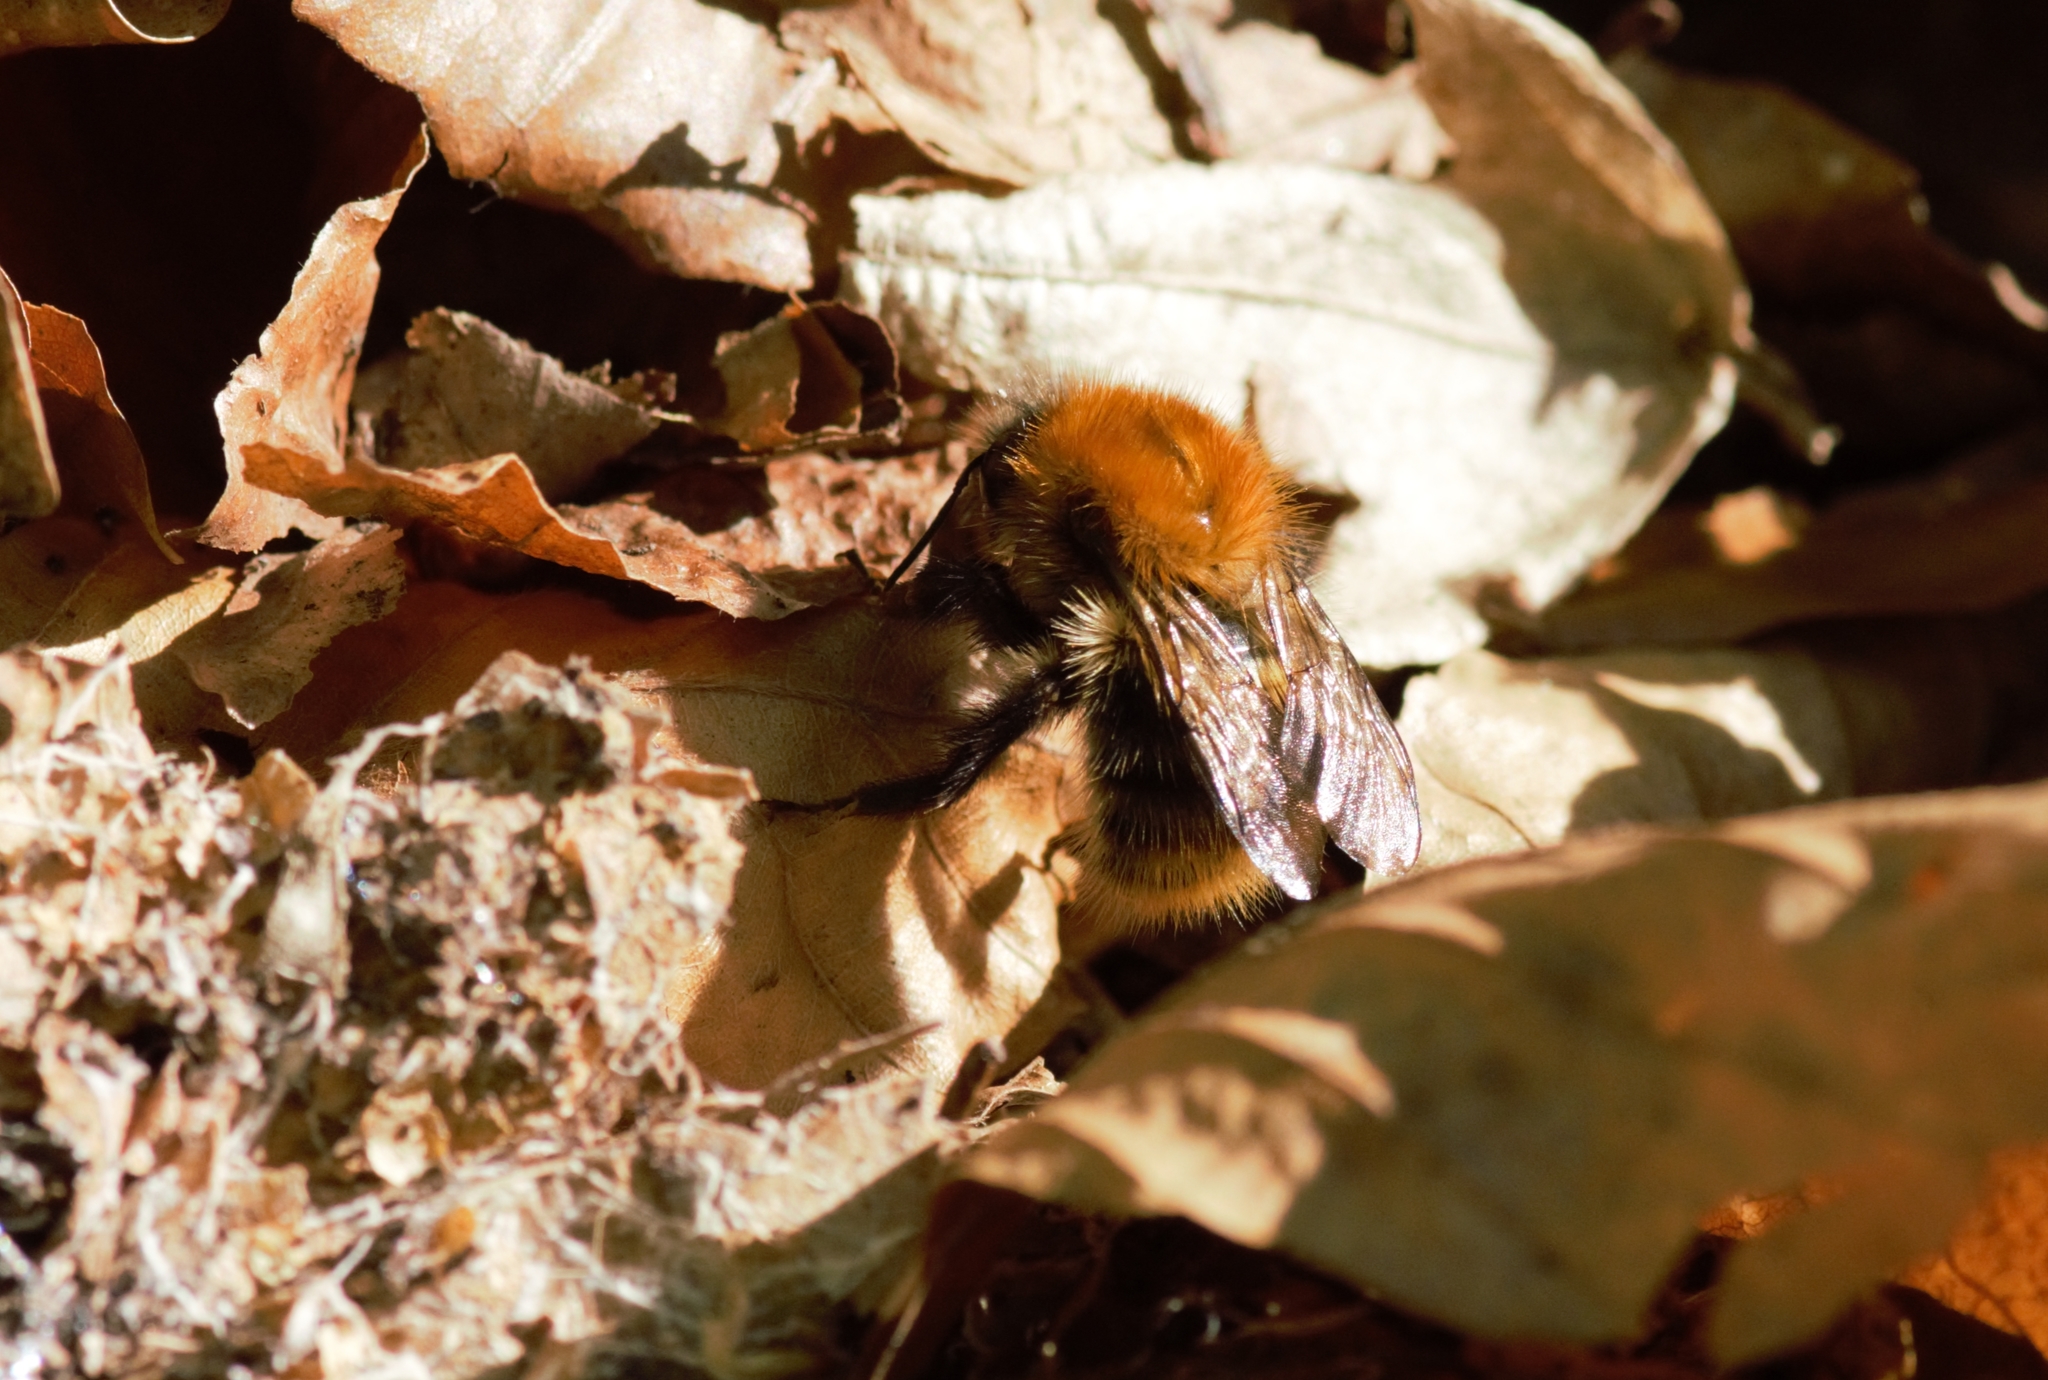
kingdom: Animalia
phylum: Arthropoda
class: Insecta
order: Hymenoptera
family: Apidae
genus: Bombus
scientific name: Bombus pascuorum
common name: Common carder bee
